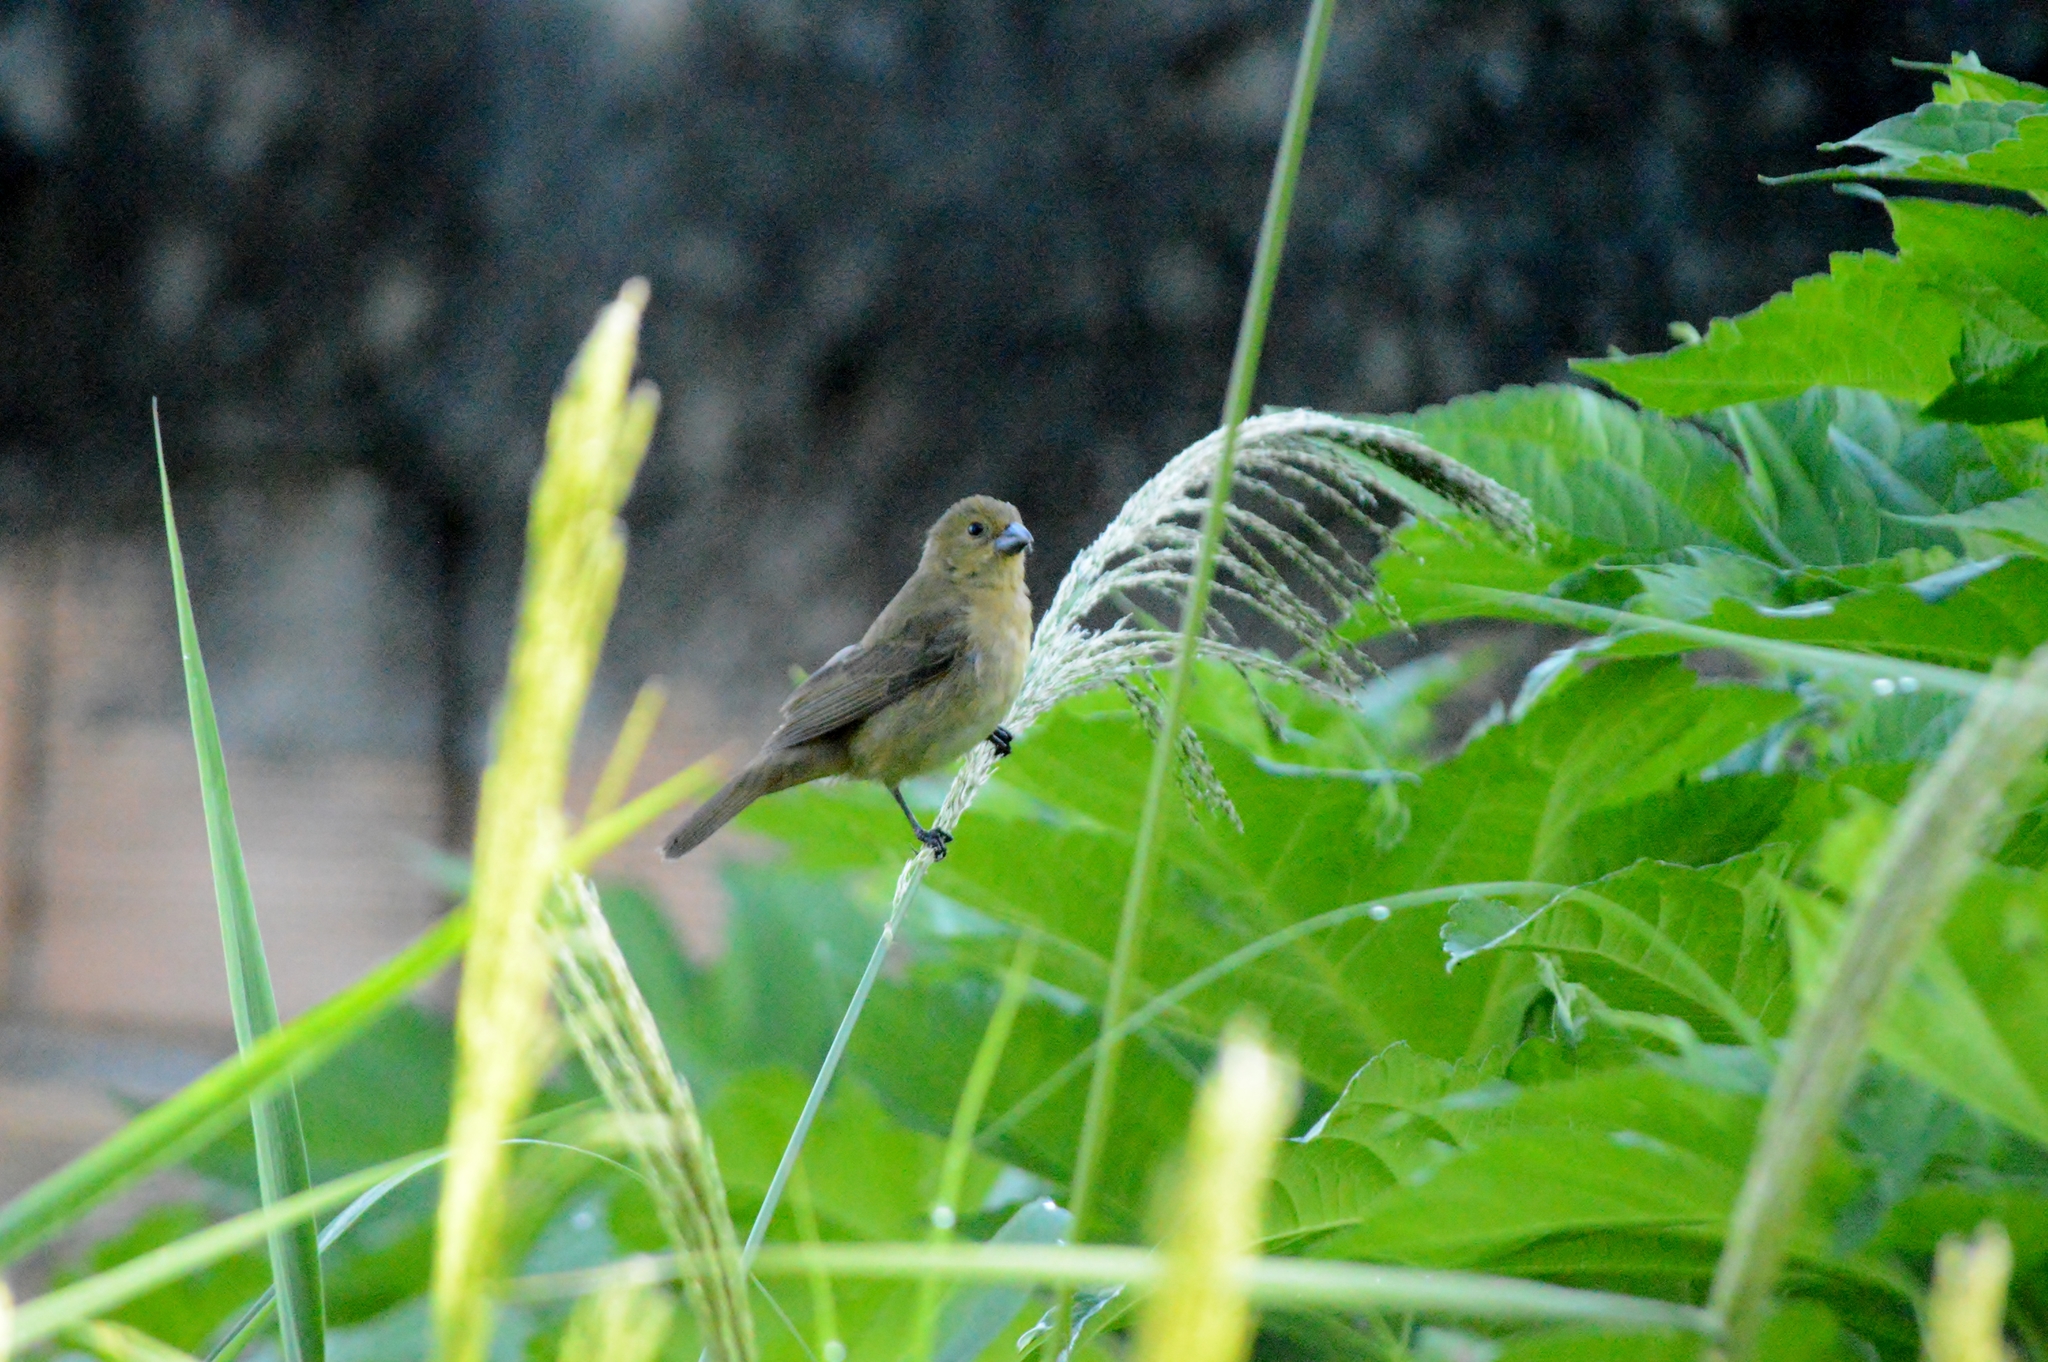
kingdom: Animalia
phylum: Chordata
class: Aves
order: Passeriformes
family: Thraupidae
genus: Sporophila
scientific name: Sporophila nigricollis
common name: Yellow-bellied seedeater
